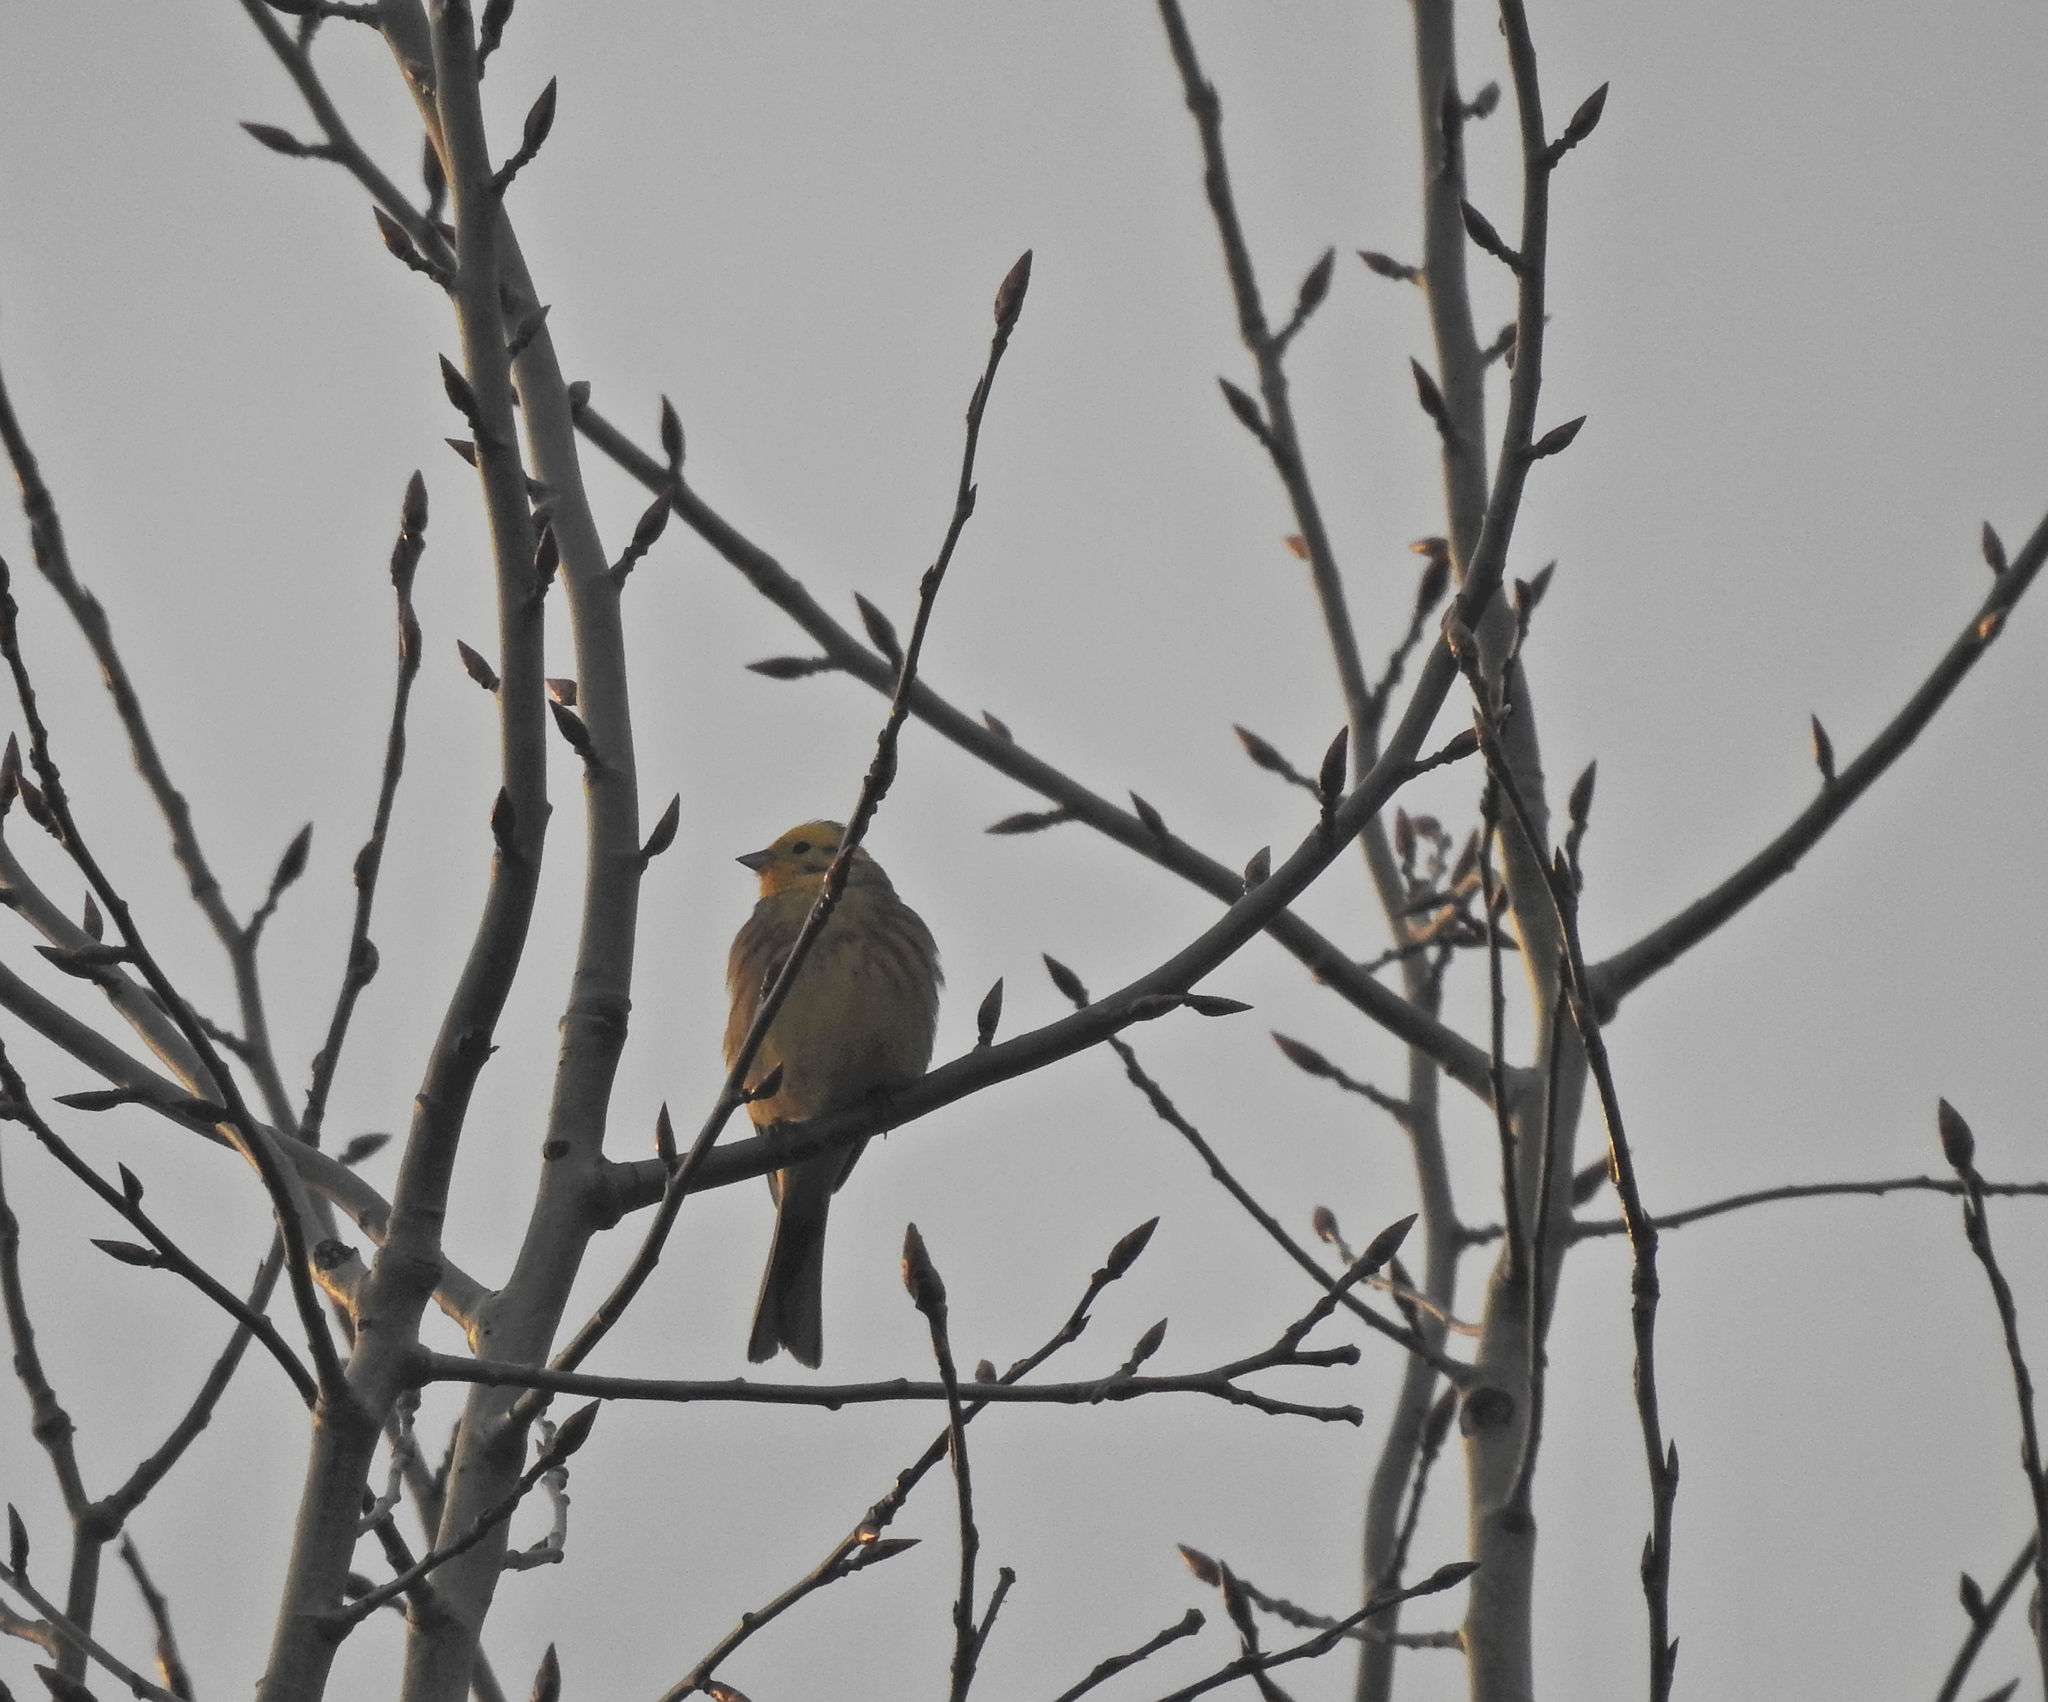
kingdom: Animalia
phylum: Chordata
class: Aves
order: Passeriformes
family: Emberizidae
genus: Emberiza
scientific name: Emberiza citrinella
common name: Yellowhammer
